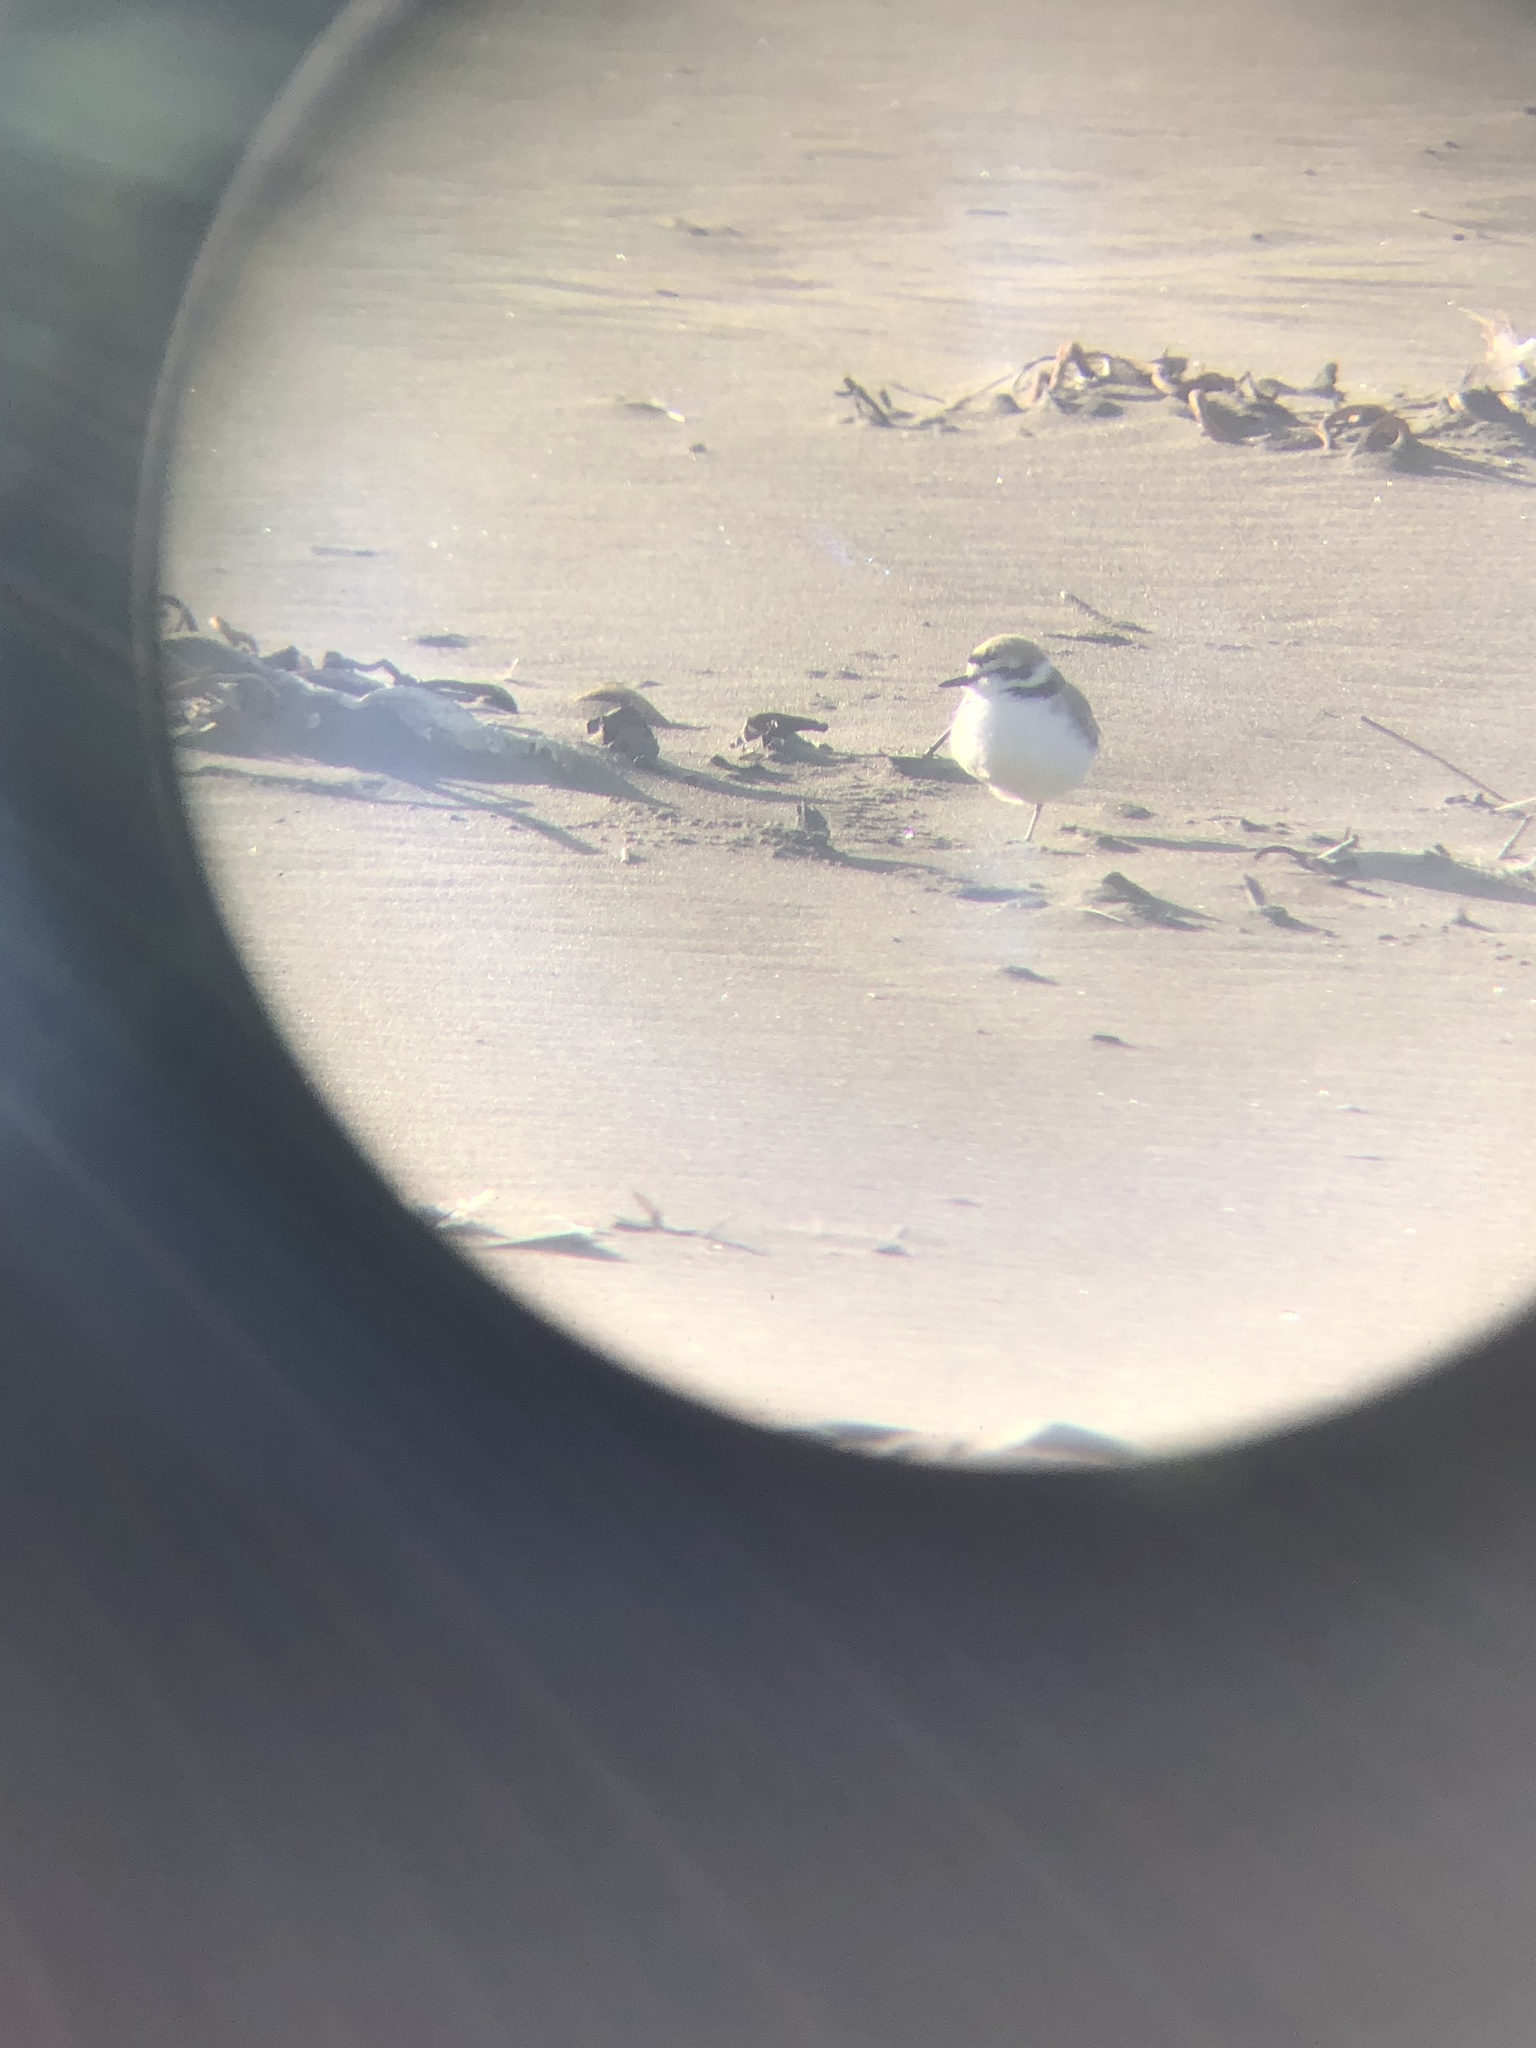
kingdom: Animalia
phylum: Chordata
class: Aves
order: Charadriiformes
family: Charadriidae
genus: Anarhynchus
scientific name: Anarhynchus
